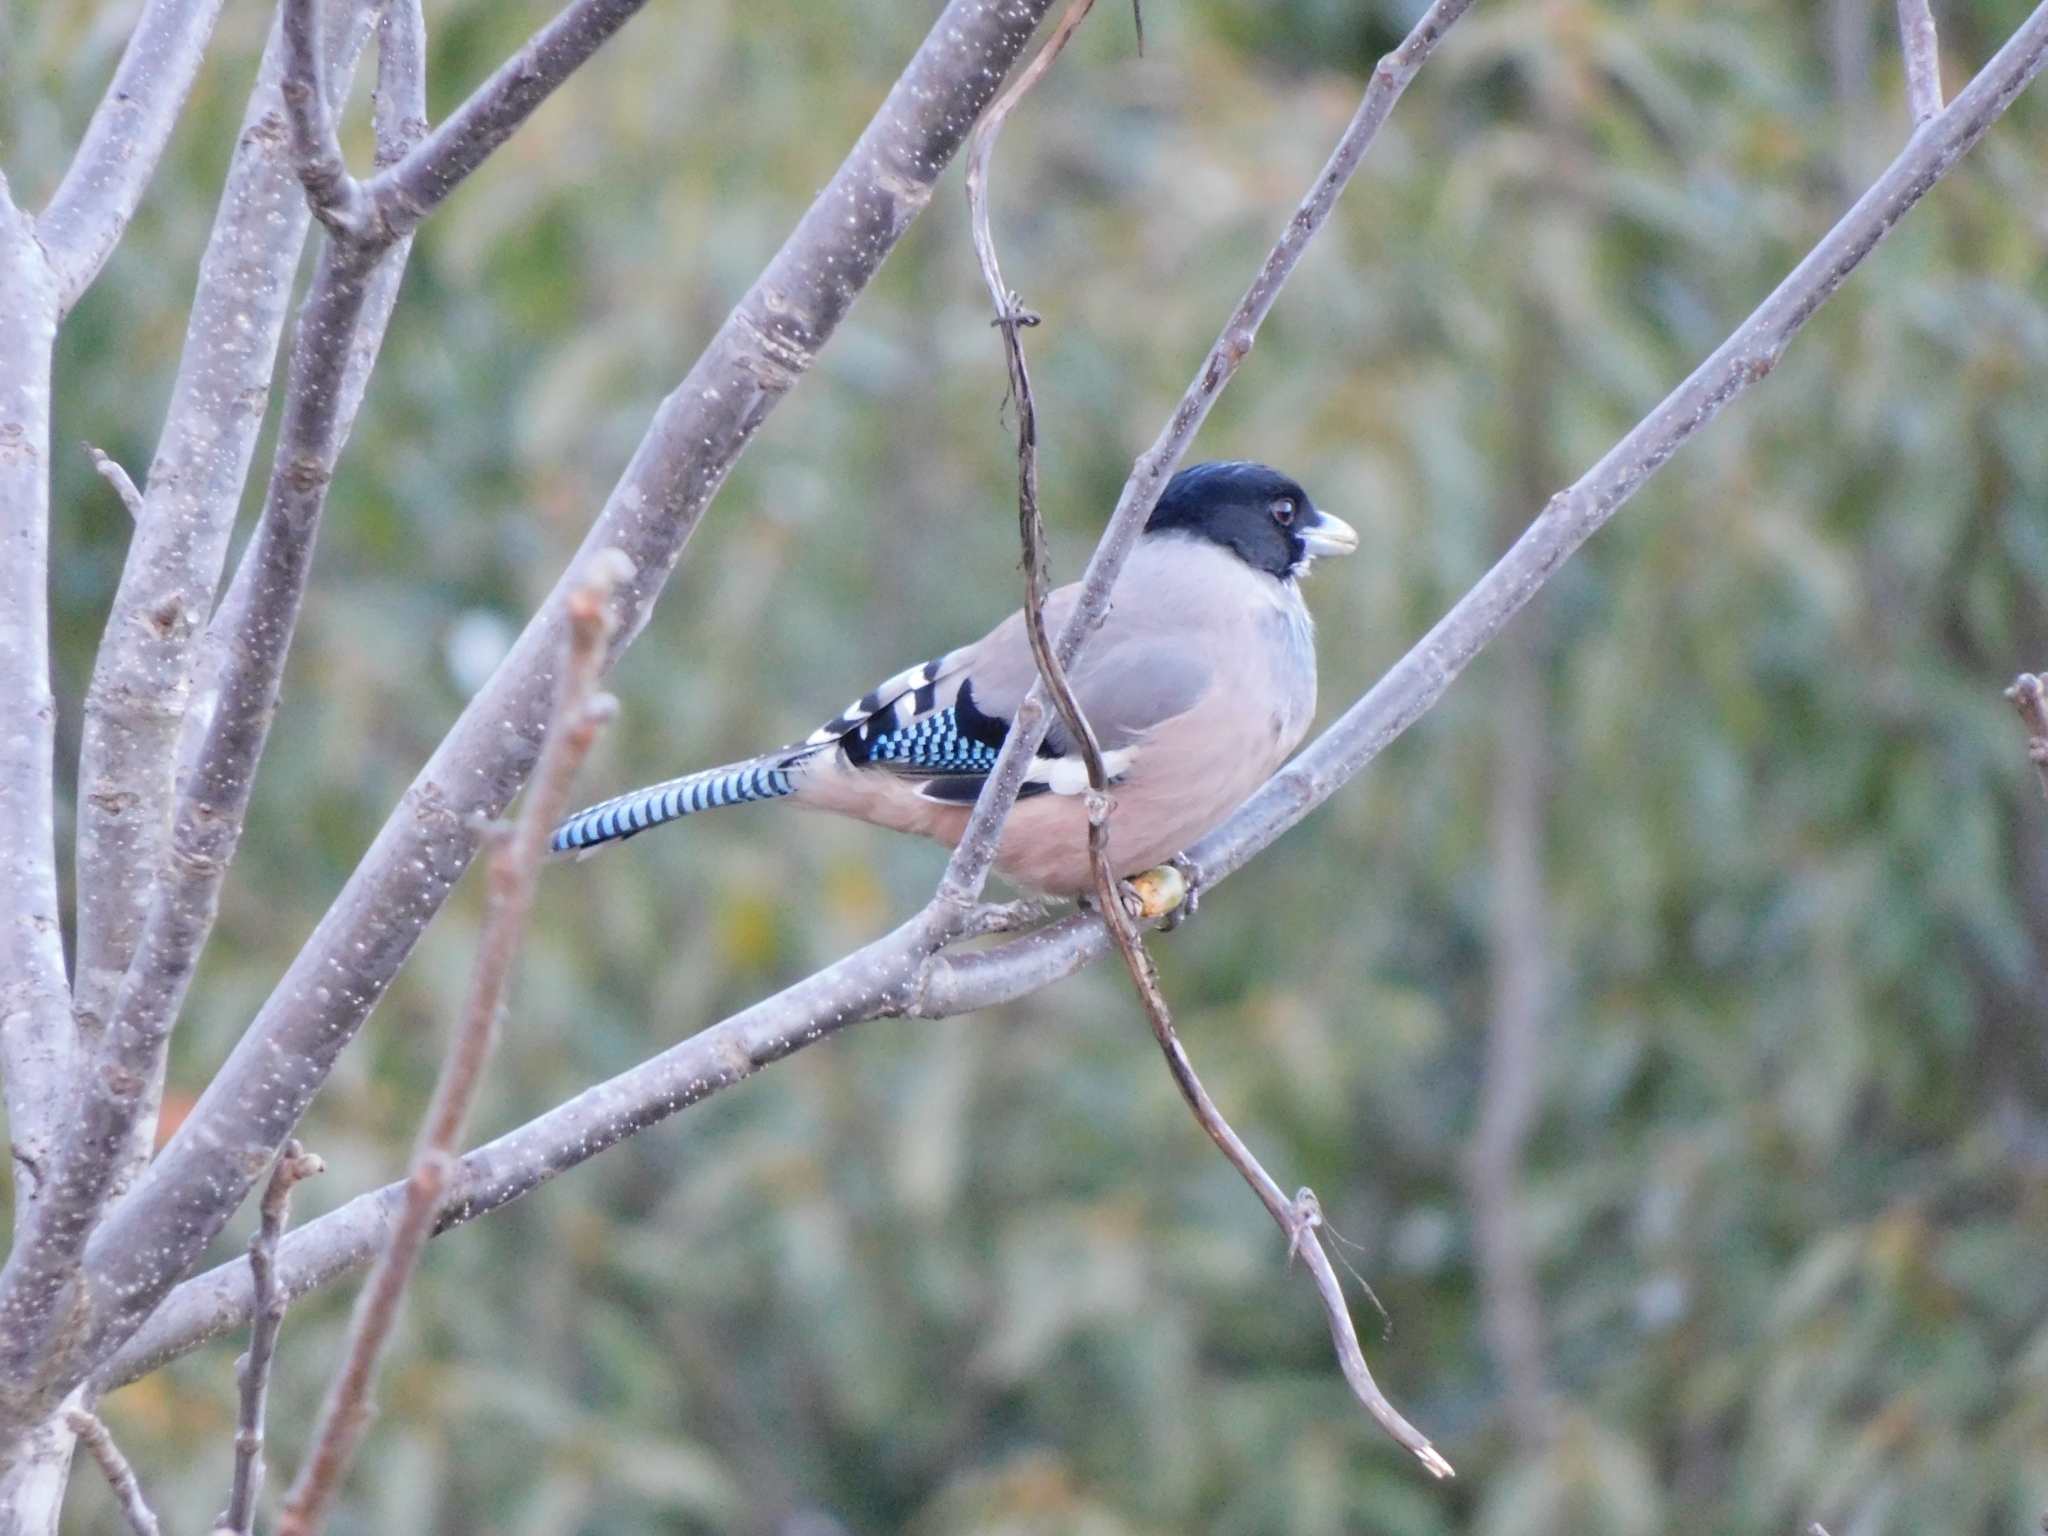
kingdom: Animalia
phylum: Chordata
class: Aves
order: Passeriformes
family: Corvidae
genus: Garrulus
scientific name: Garrulus lanceolatus
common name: Black-headed jay
